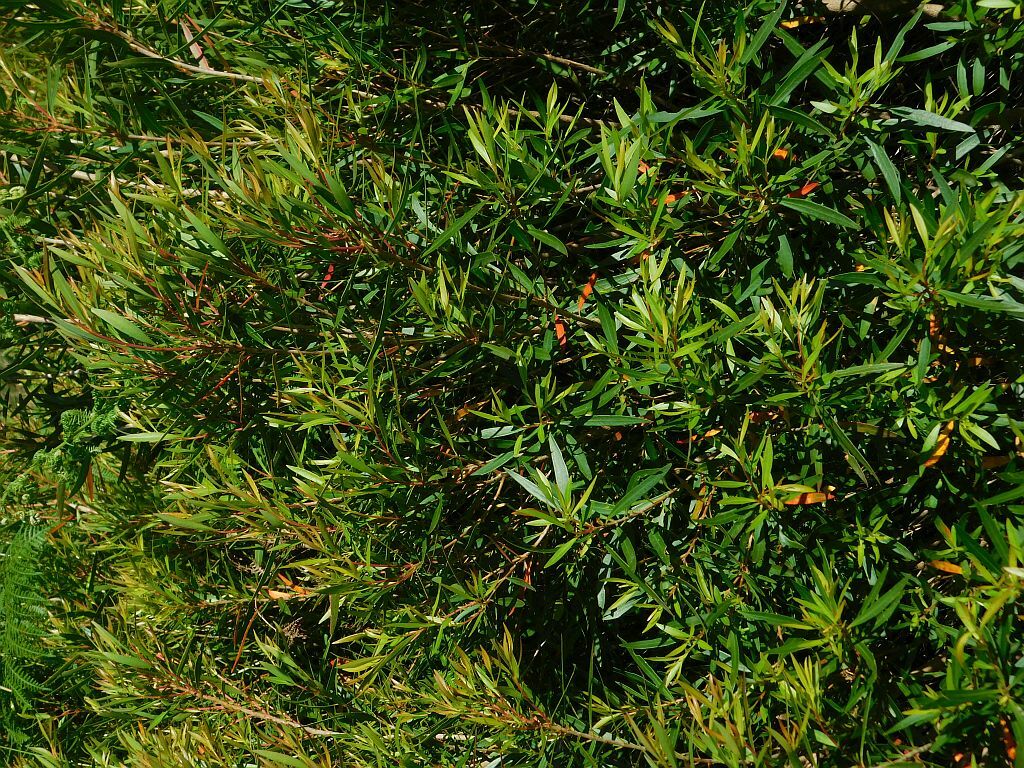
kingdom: Plantae
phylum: Tracheophyta
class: Magnoliopsida
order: Myrtales
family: Myrtaceae
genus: Callistemon
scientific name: Callistemon lanceolatus
